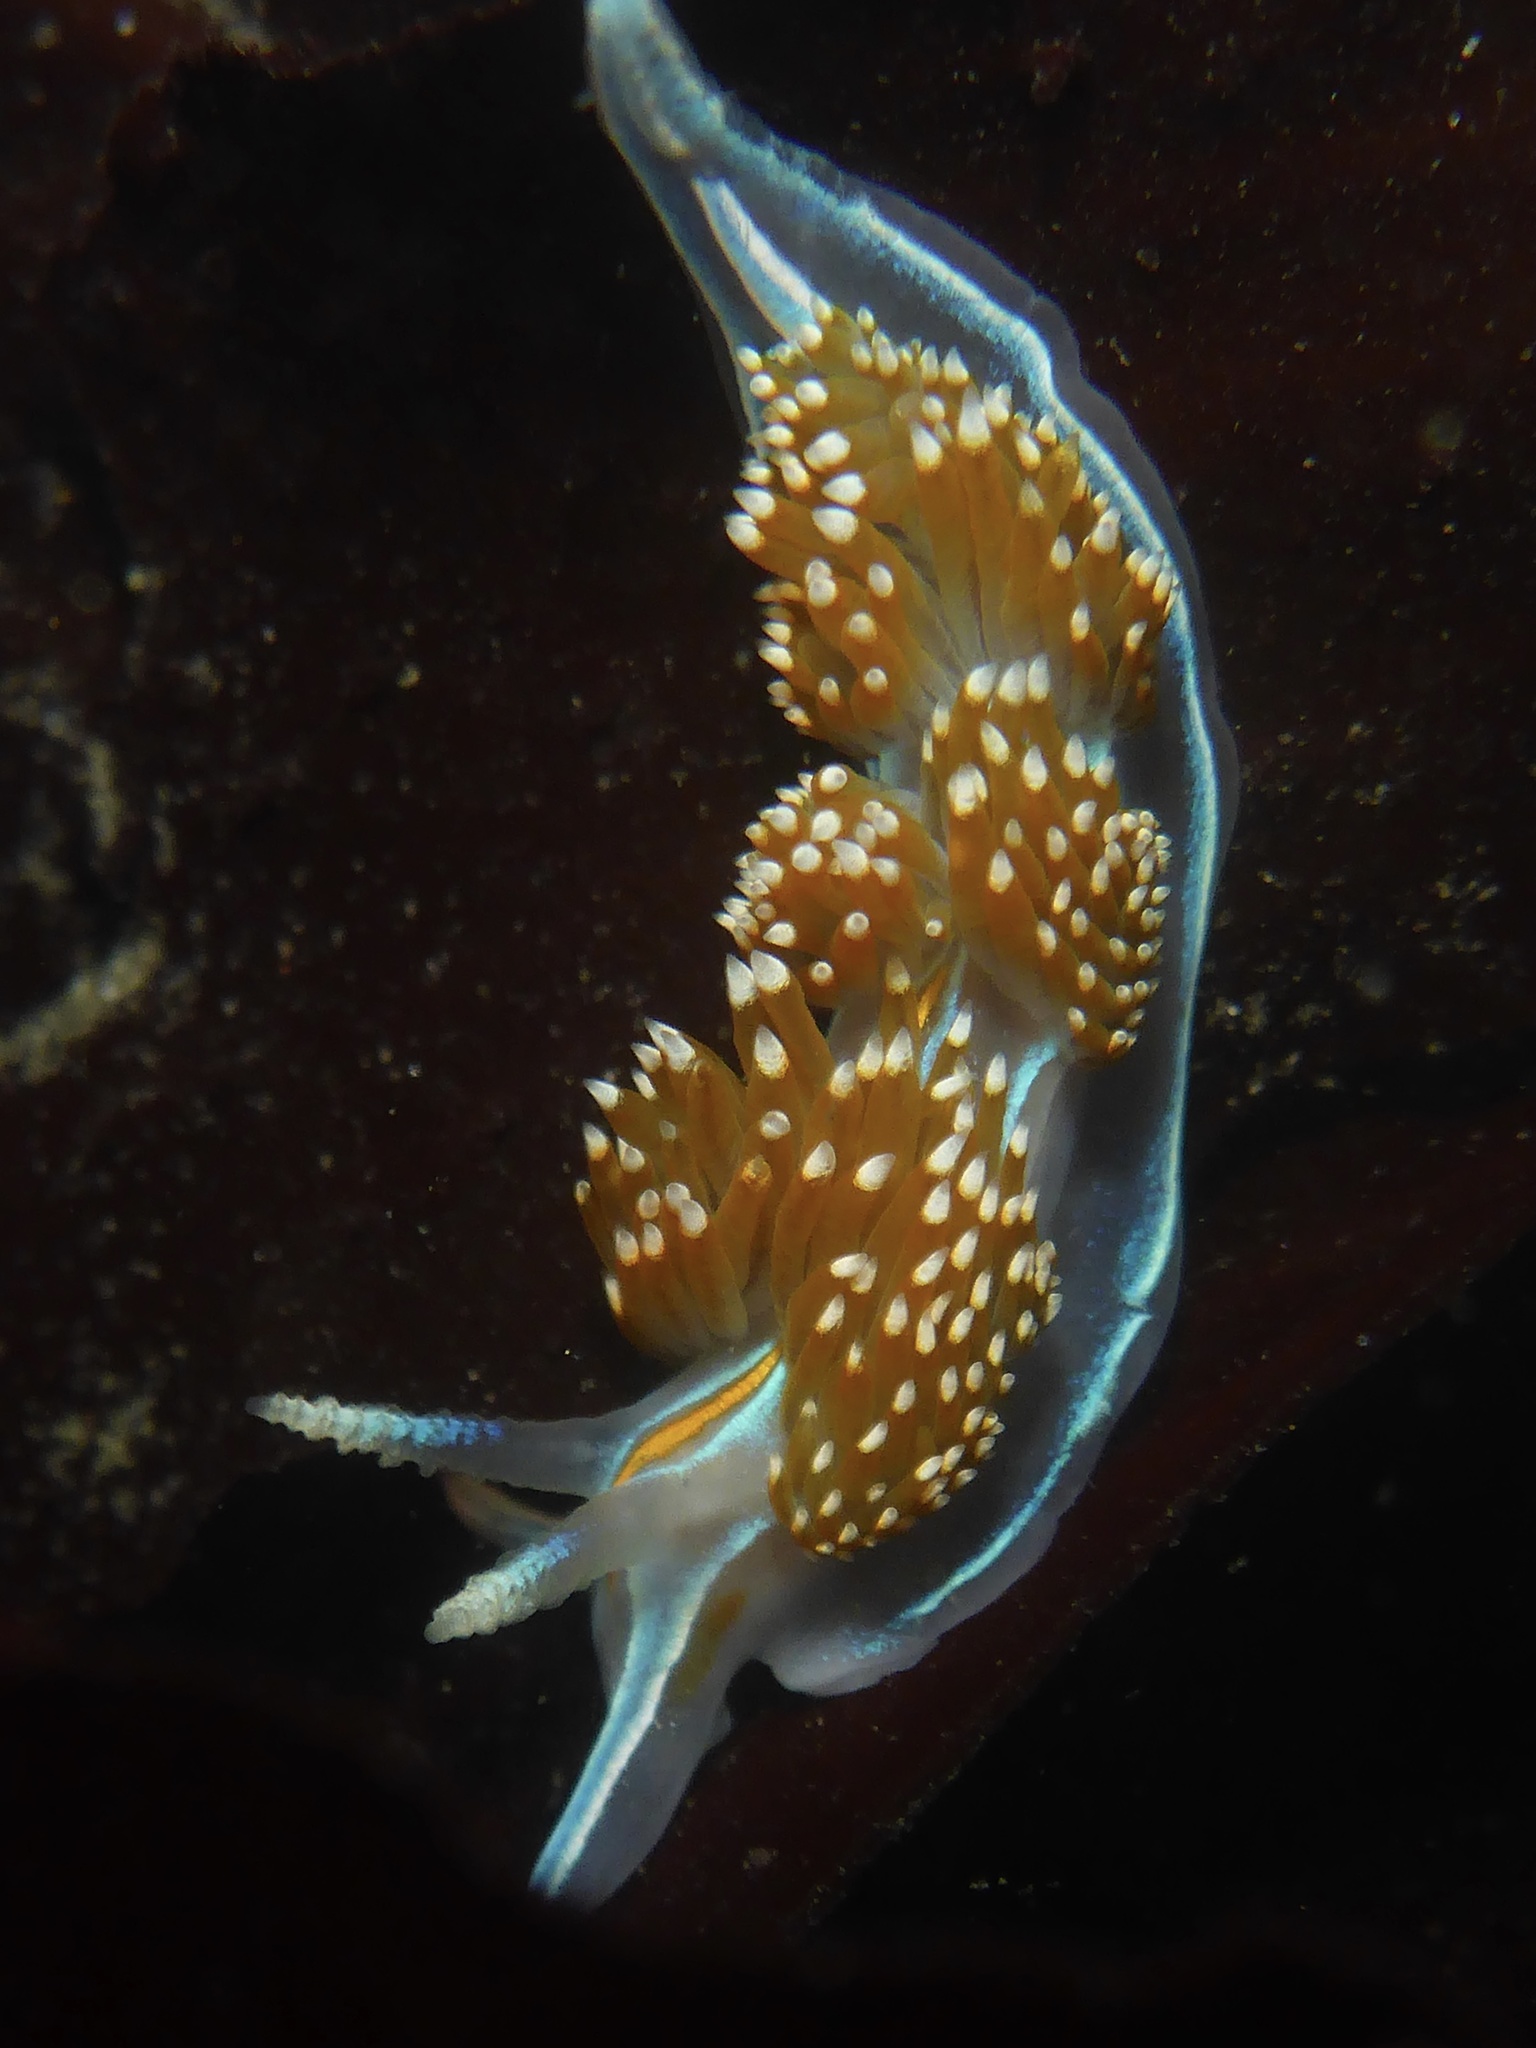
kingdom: Animalia
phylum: Mollusca
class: Gastropoda
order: Nudibranchia
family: Myrrhinidae
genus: Hermissenda
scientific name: Hermissenda opalescens
